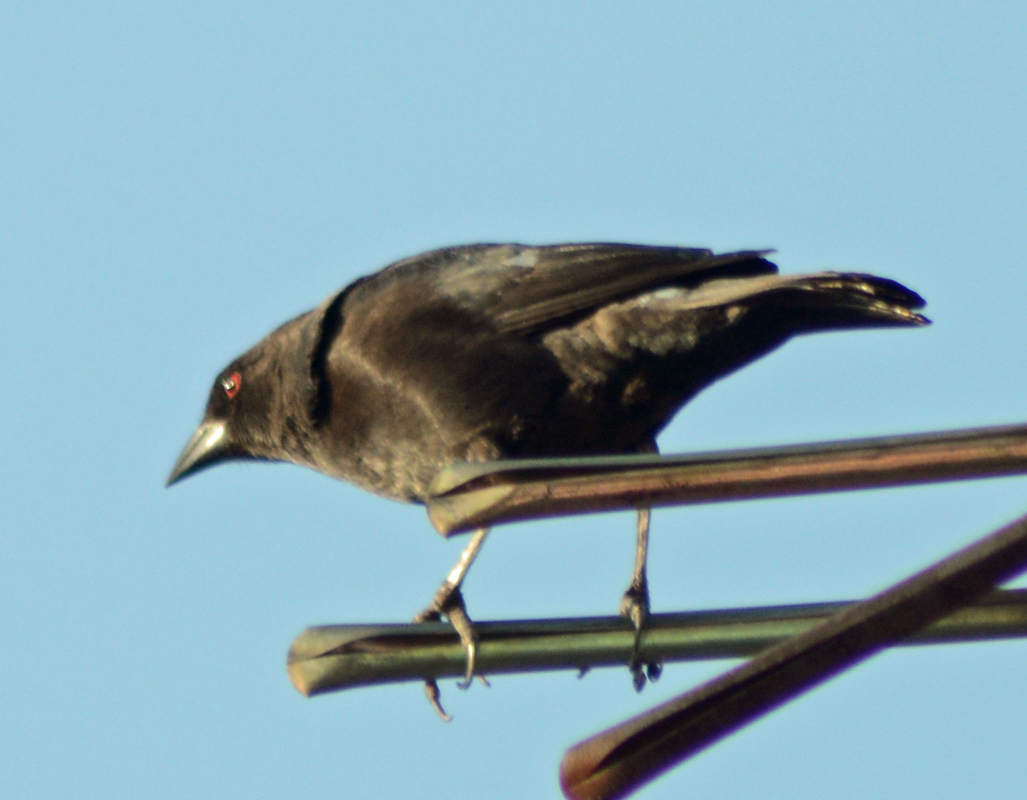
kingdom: Animalia
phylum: Chordata
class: Aves
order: Passeriformes
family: Icteridae
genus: Molothrus
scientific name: Molothrus aeneus
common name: Bronzed cowbird
